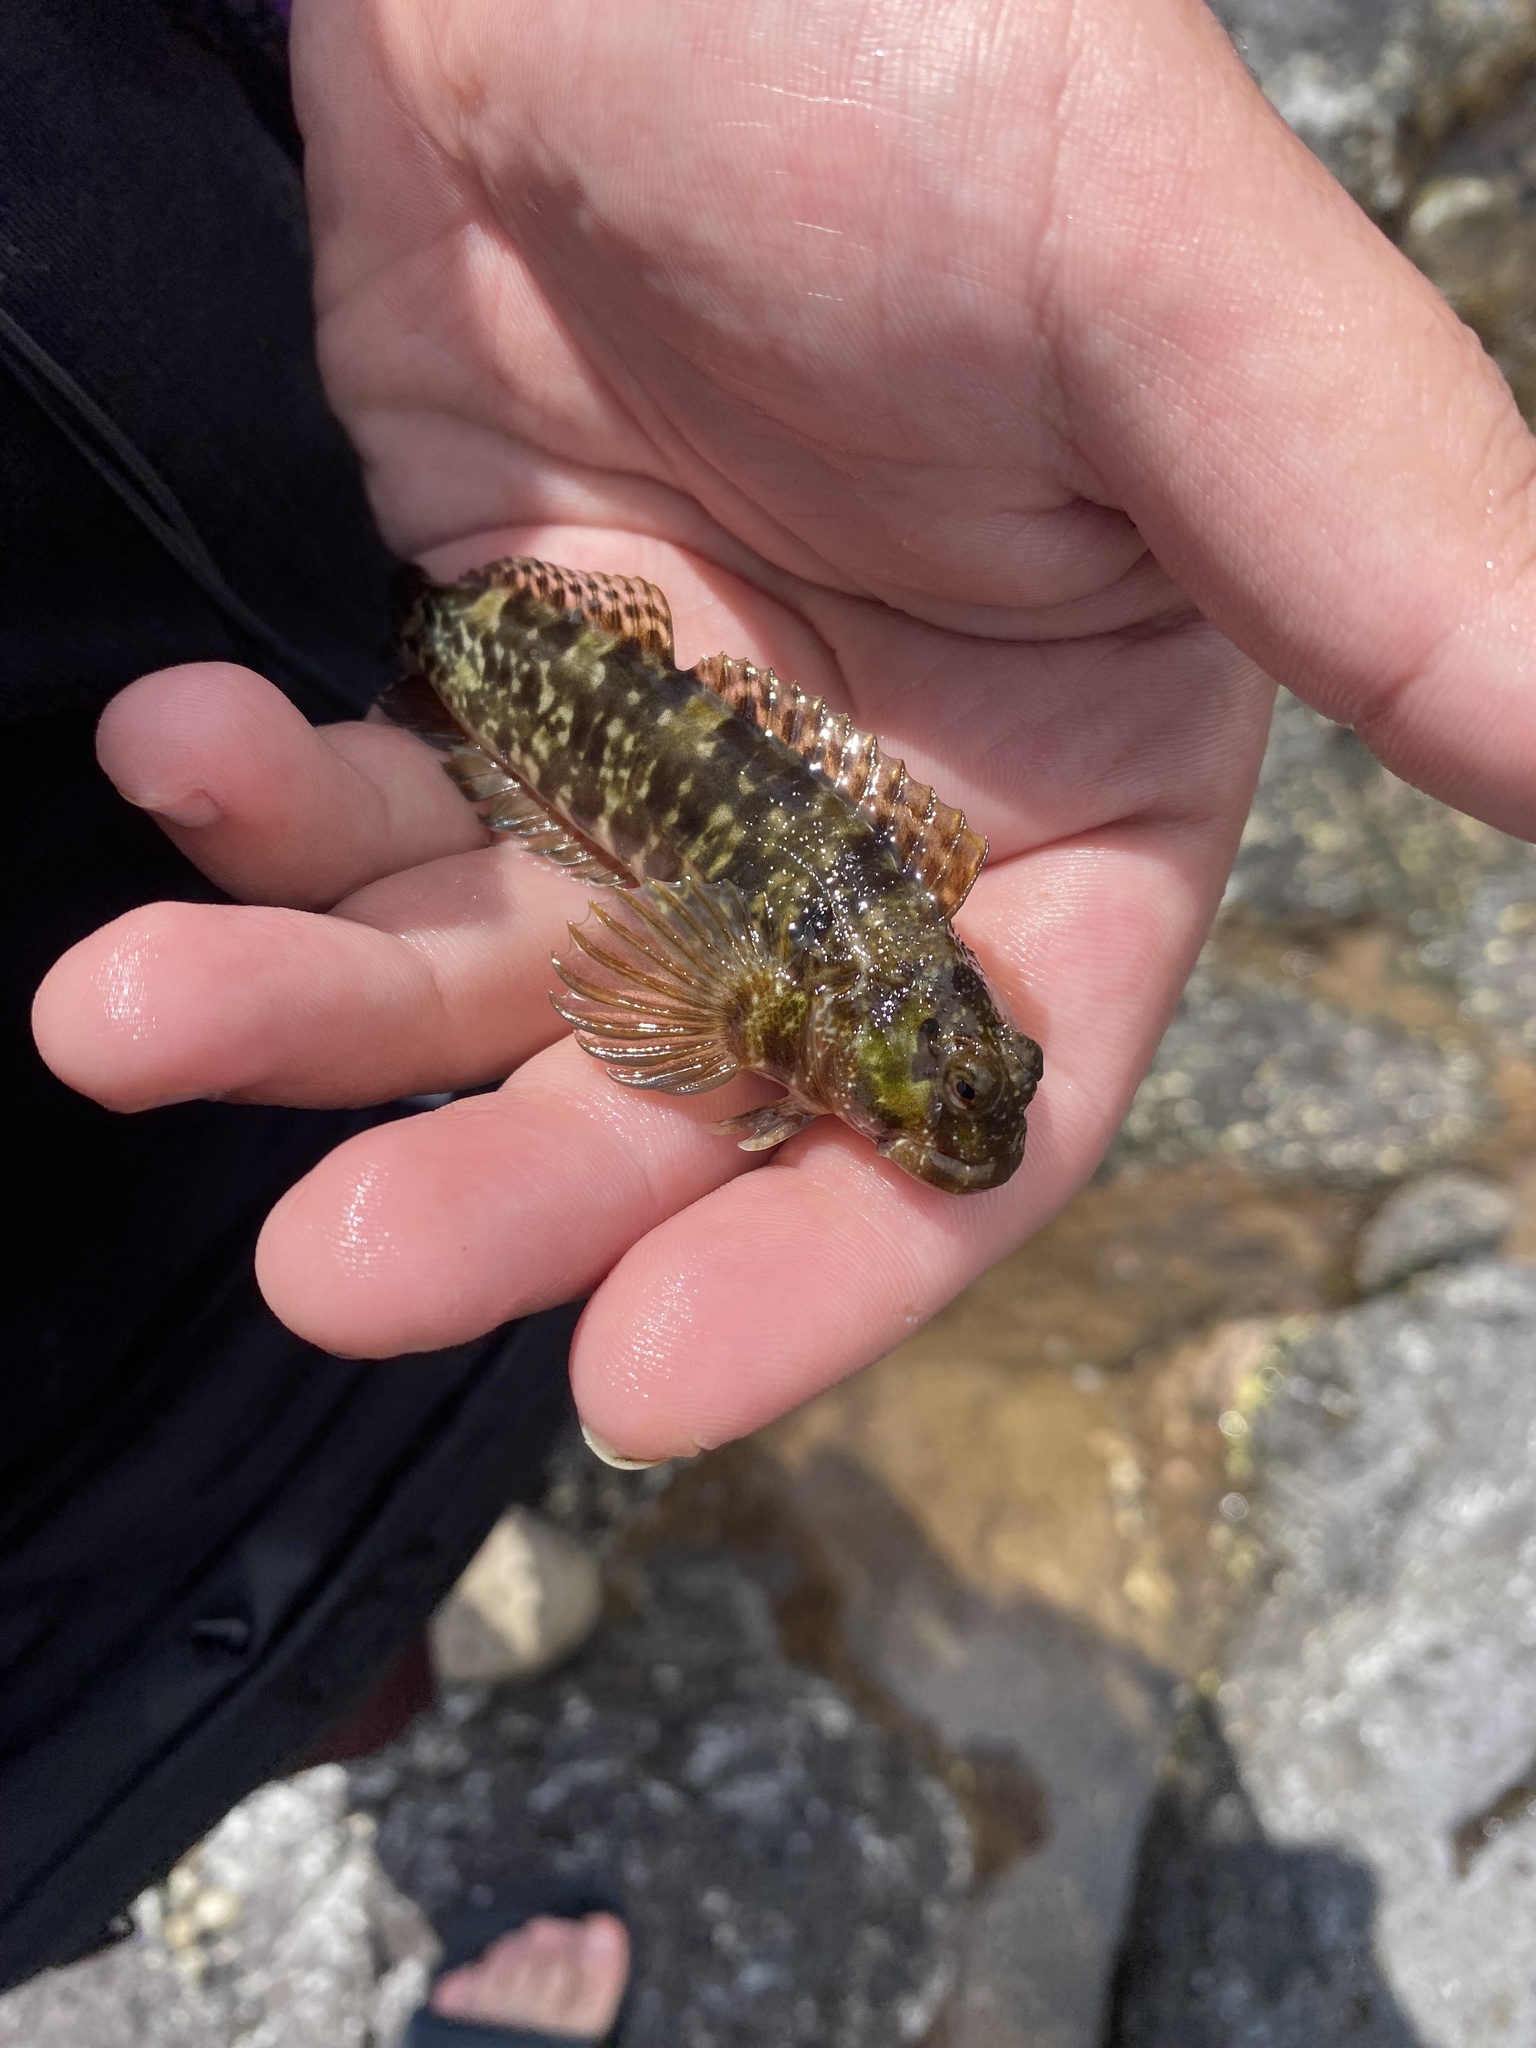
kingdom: Animalia
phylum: Chordata
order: Perciformes
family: Blenniidae
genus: Entomacrodus
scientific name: Entomacrodus marmoratus
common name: Marbled blenny
